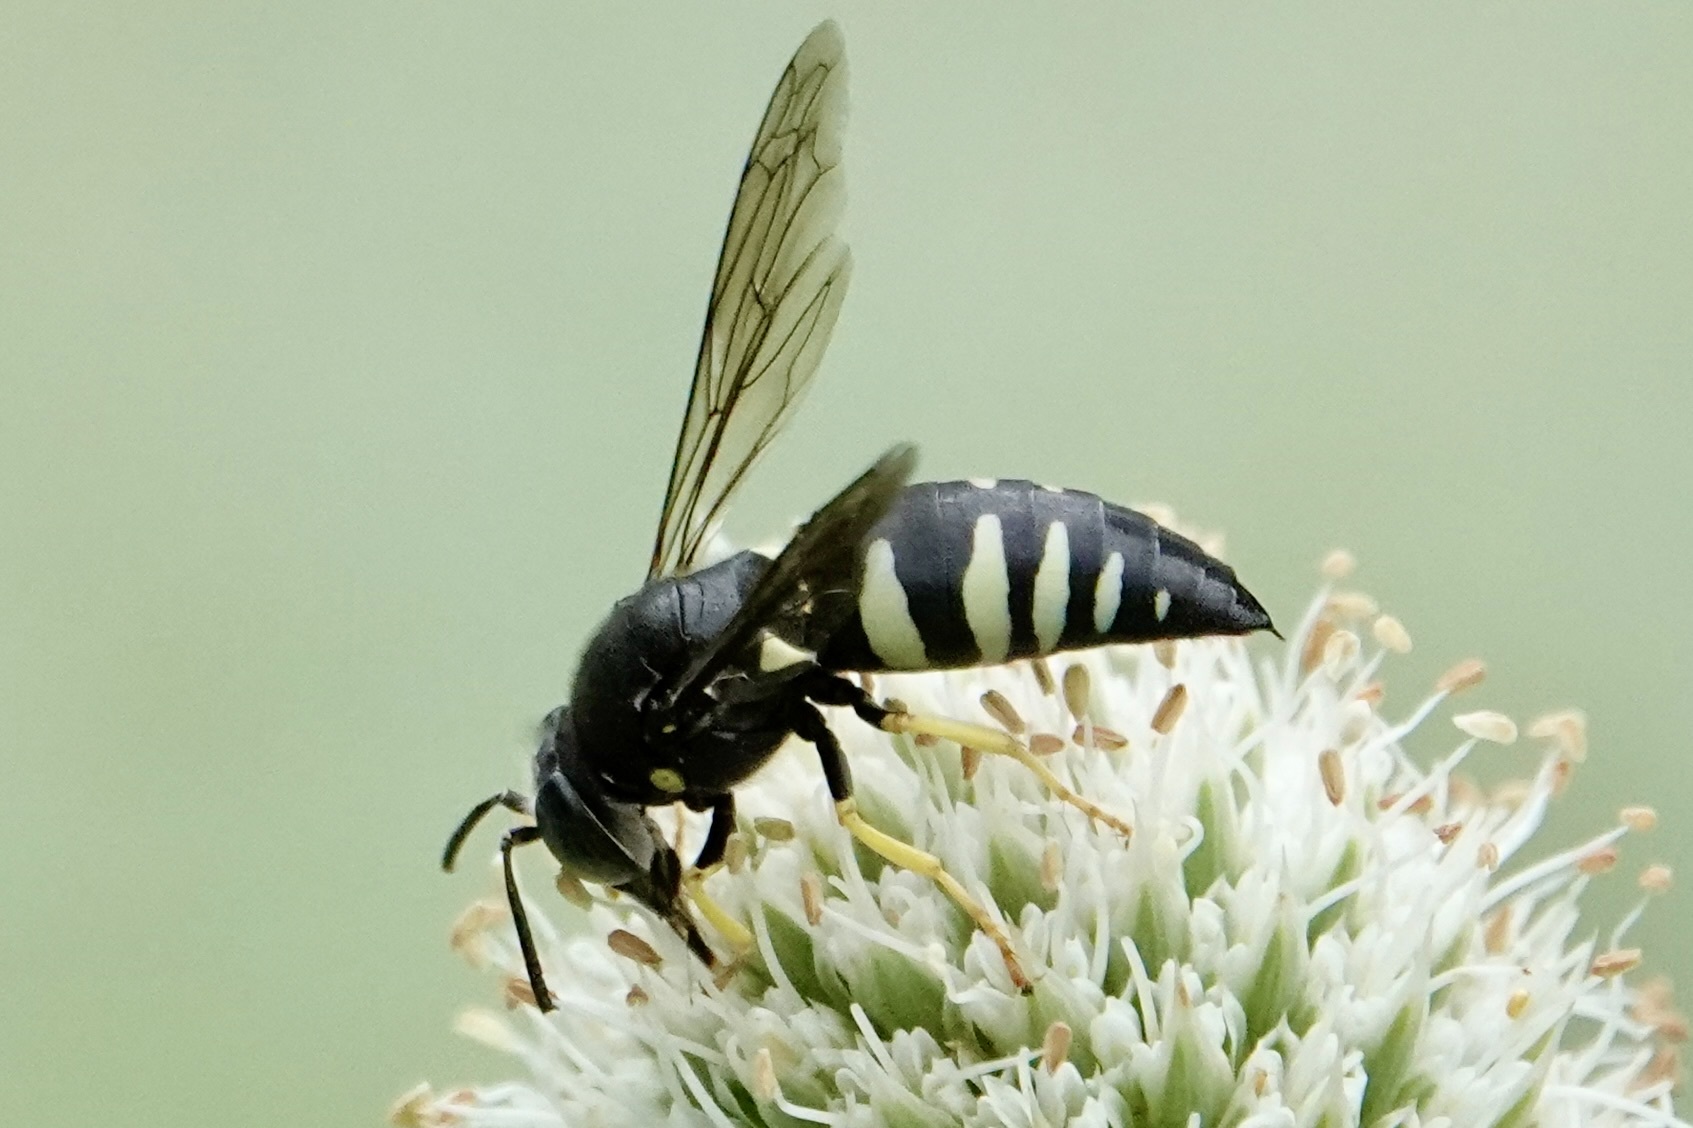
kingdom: Animalia
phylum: Arthropoda
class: Insecta
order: Hymenoptera
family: Crabronidae
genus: Bicyrtes
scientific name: Bicyrtes quadrifasciatus
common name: Four-banded stink bug hunter wasp
